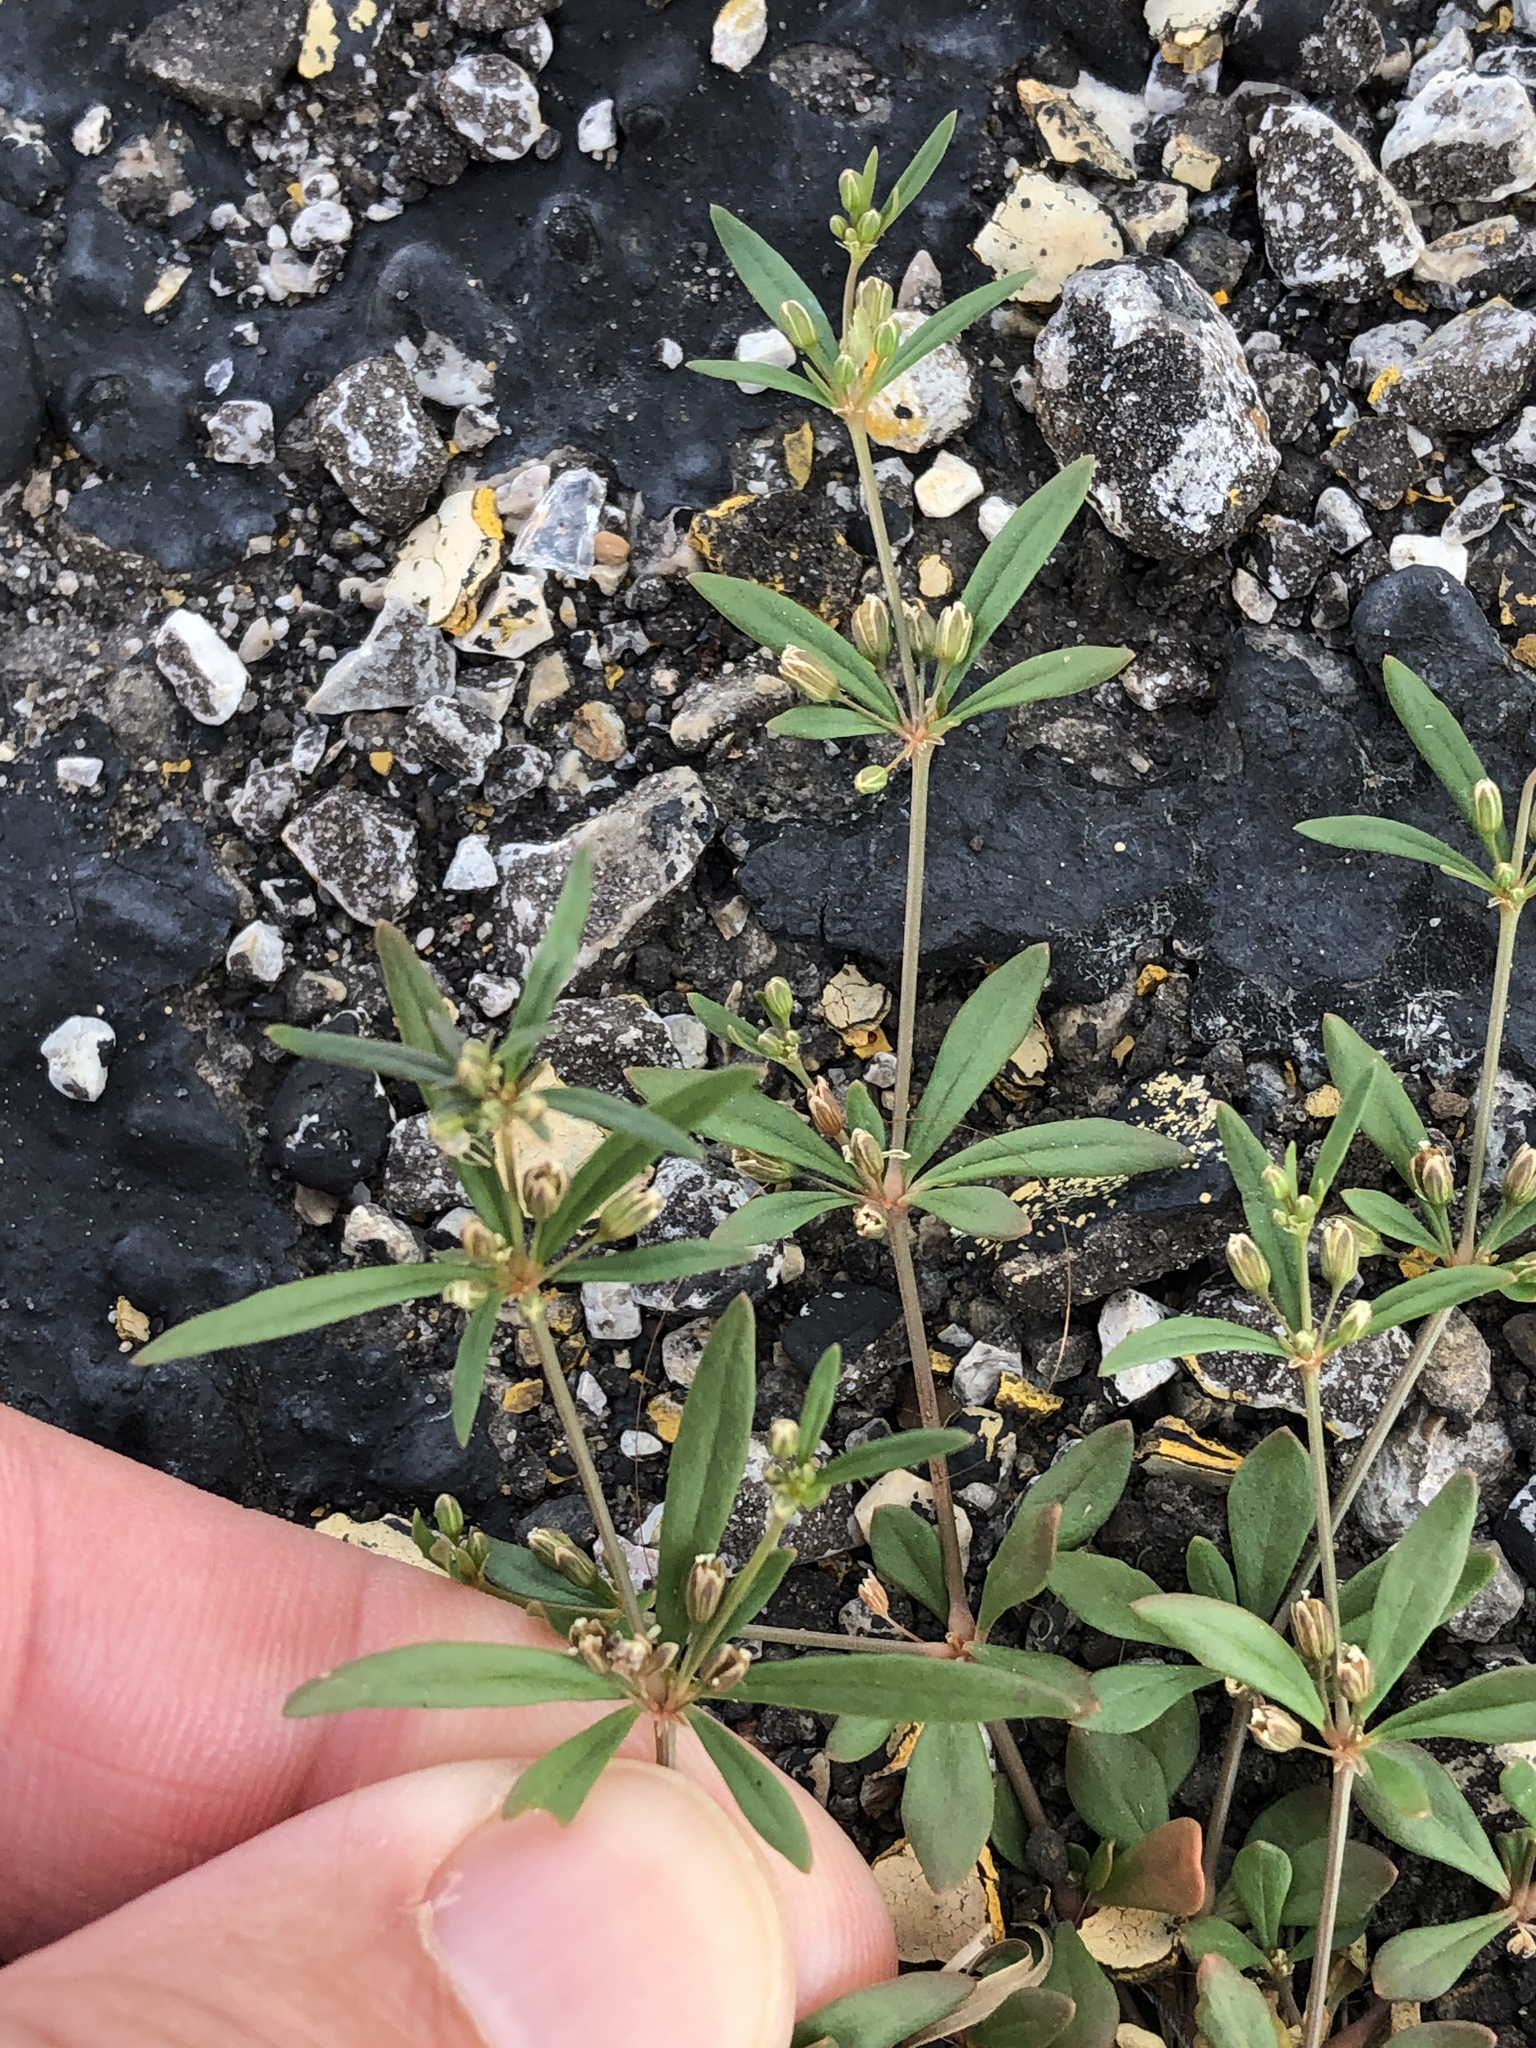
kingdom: Plantae
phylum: Tracheophyta
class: Magnoliopsida
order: Caryophyllales
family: Molluginaceae
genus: Mollugo
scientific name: Mollugo verticillata
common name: Green carpetweed
